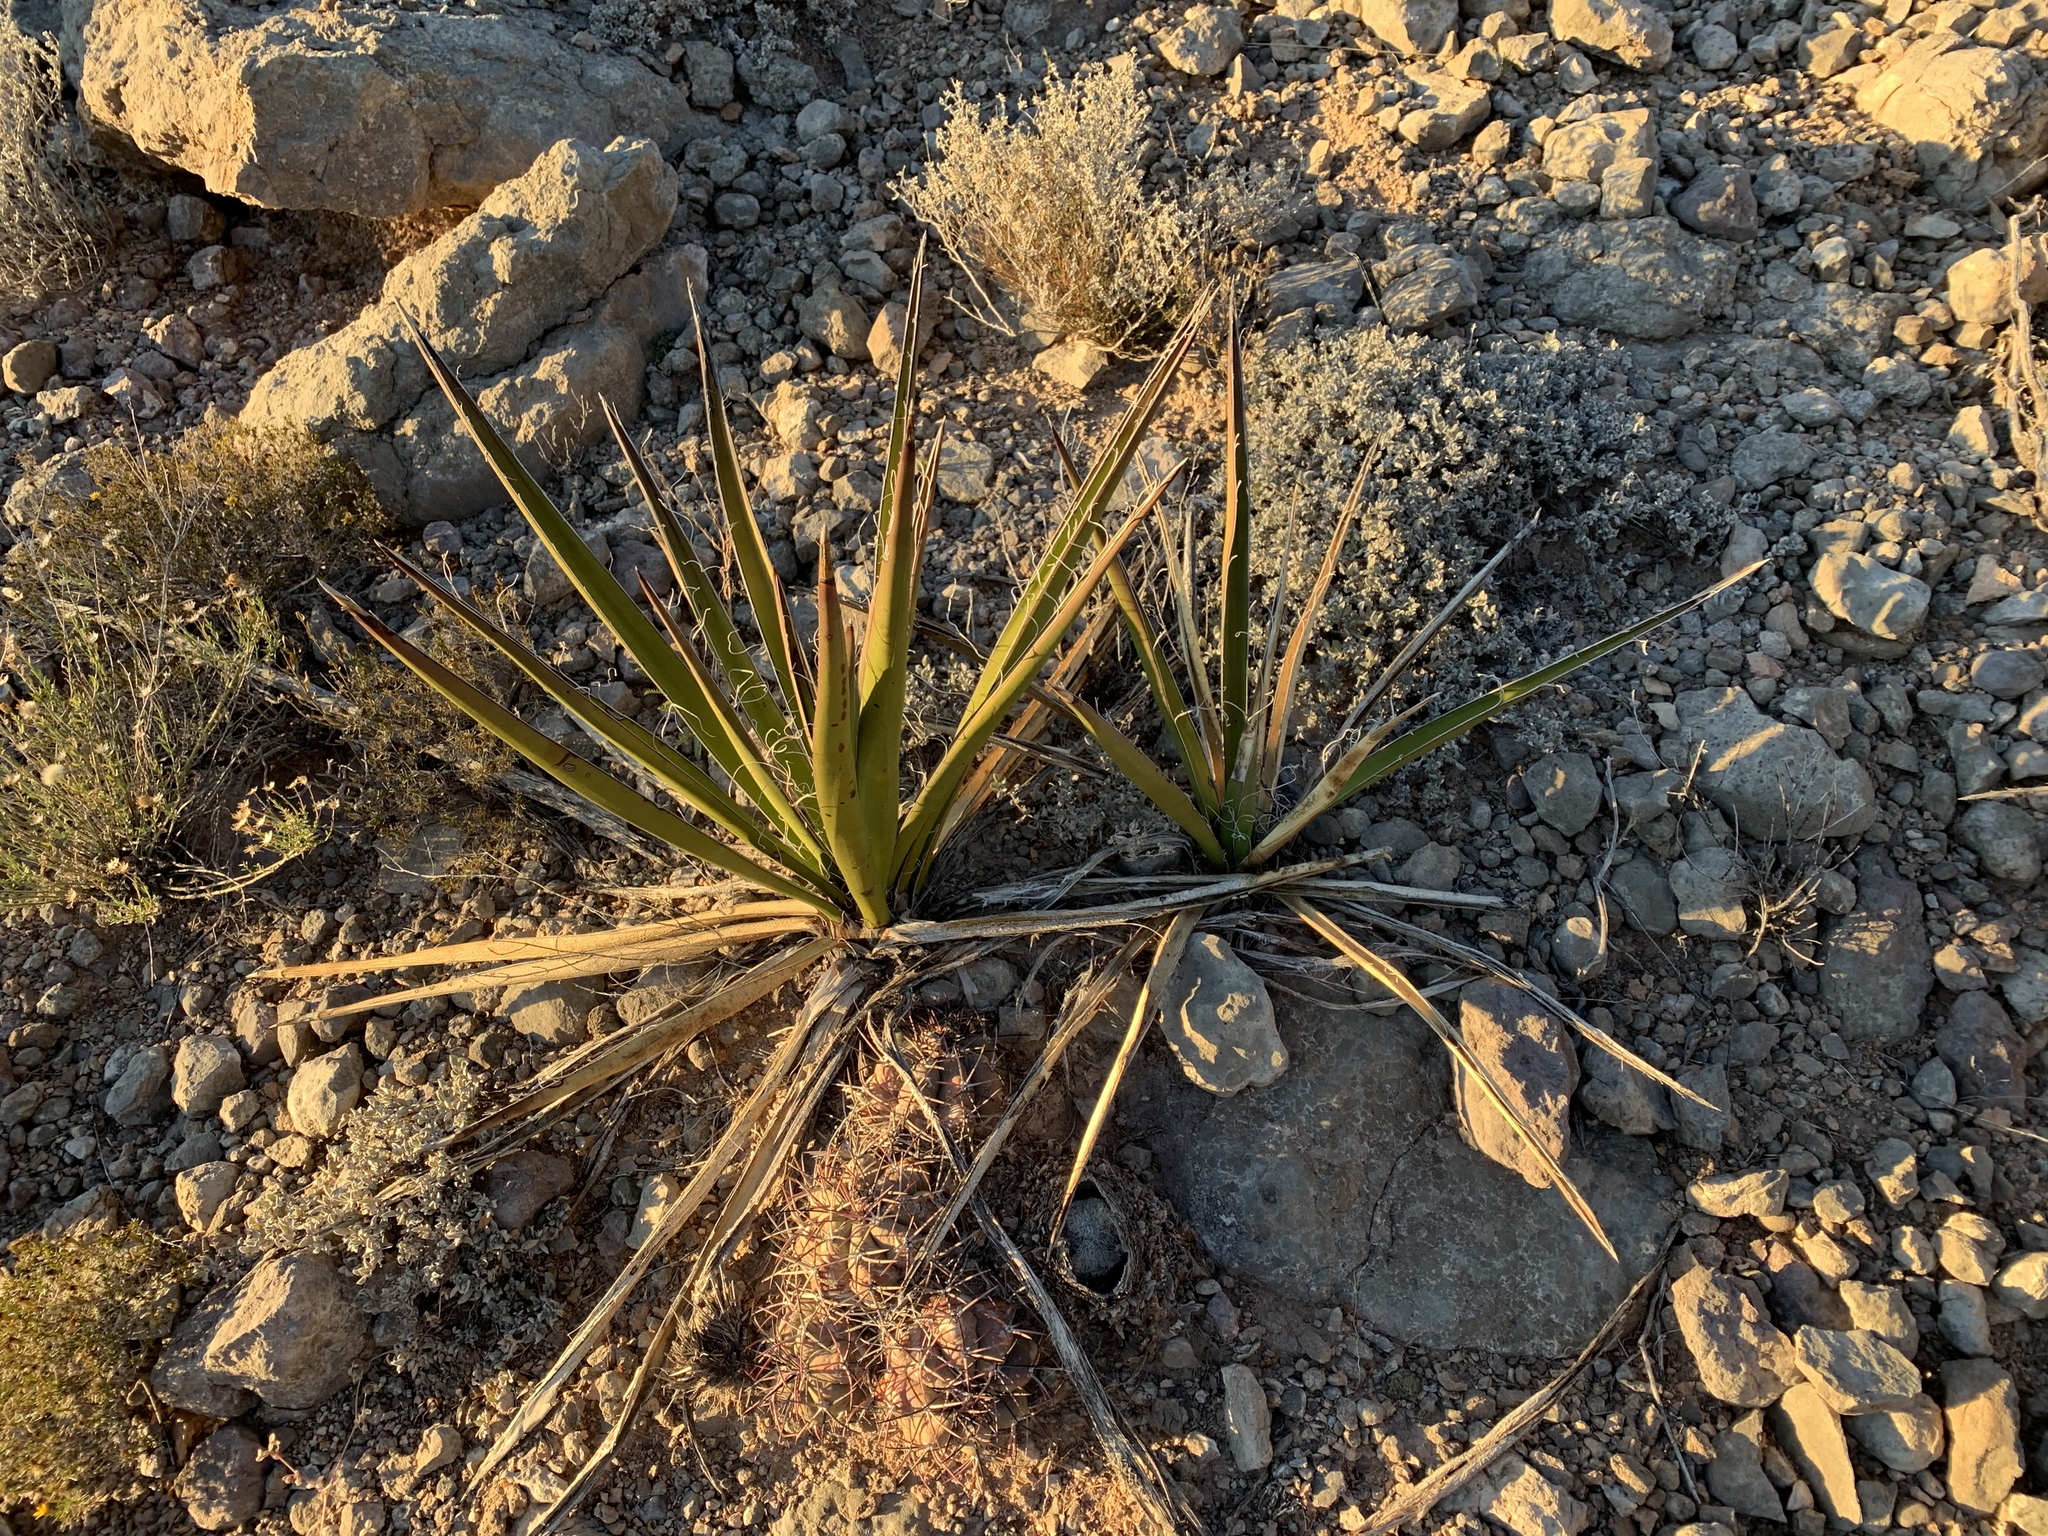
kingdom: Plantae
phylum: Tracheophyta
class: Liliopsida
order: Asparagales
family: Asparagaceae
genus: Yucca
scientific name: Yucca baccata
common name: Banana yucca
